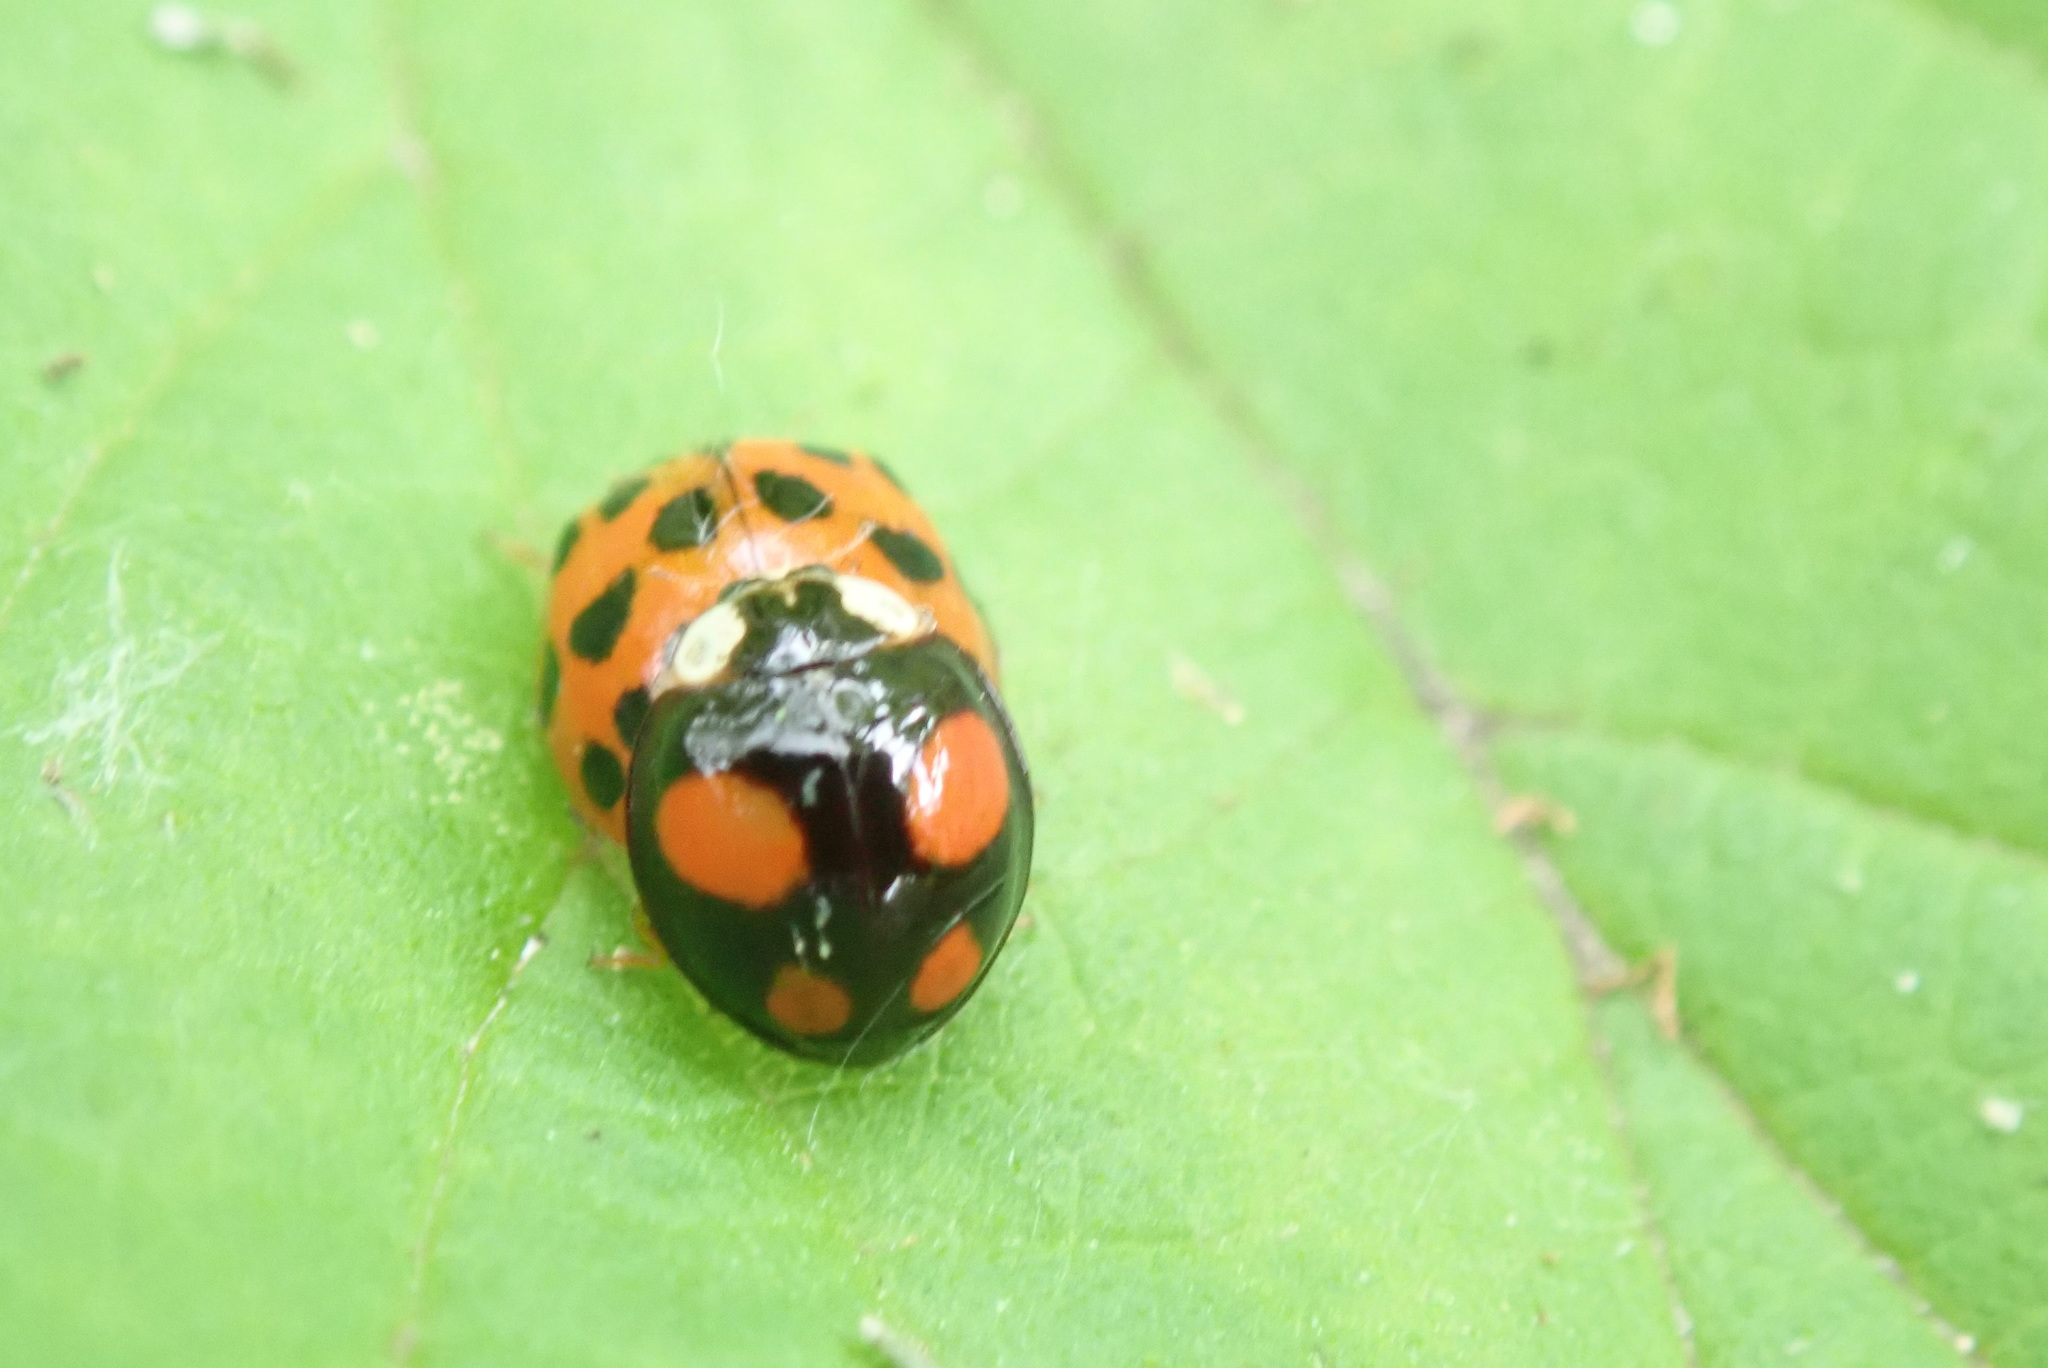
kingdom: Animalia
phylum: Arthropoda
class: Insecta
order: Coleoptera
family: Coccinellidae
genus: Harmonia
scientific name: Harmonia axyridis
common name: Harlequin ladybird
